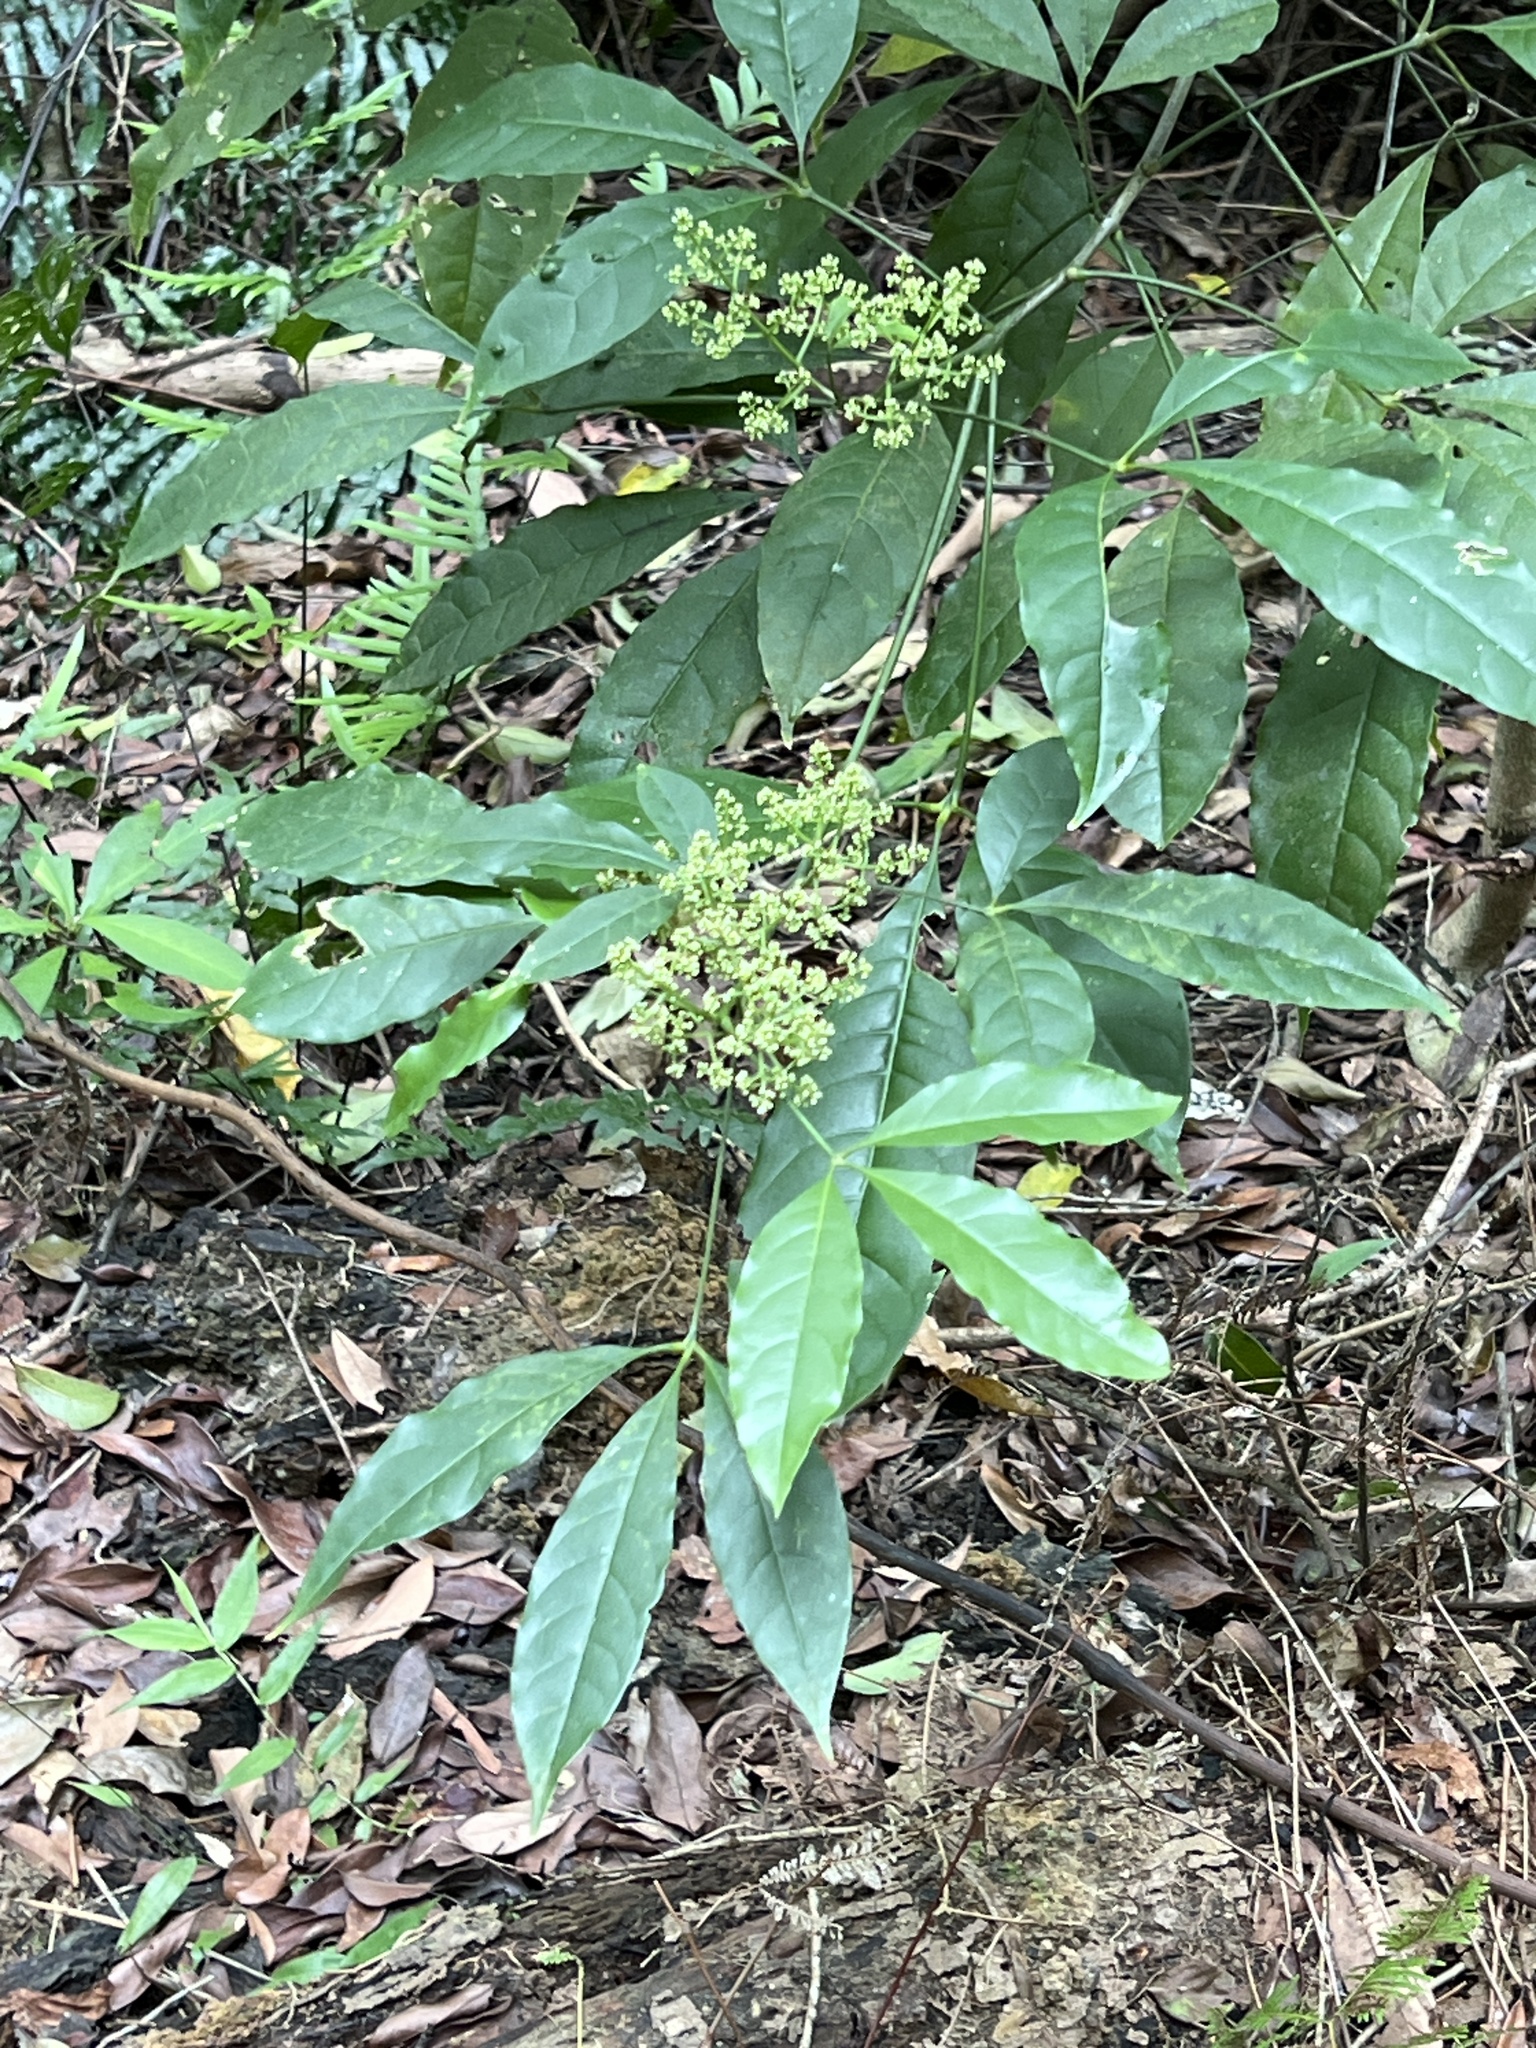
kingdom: Plantae
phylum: Tracheophyta
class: Magnoliopsida
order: Sapindales
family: Rutaceae
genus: Melicope
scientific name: Melicope pteleifolia
